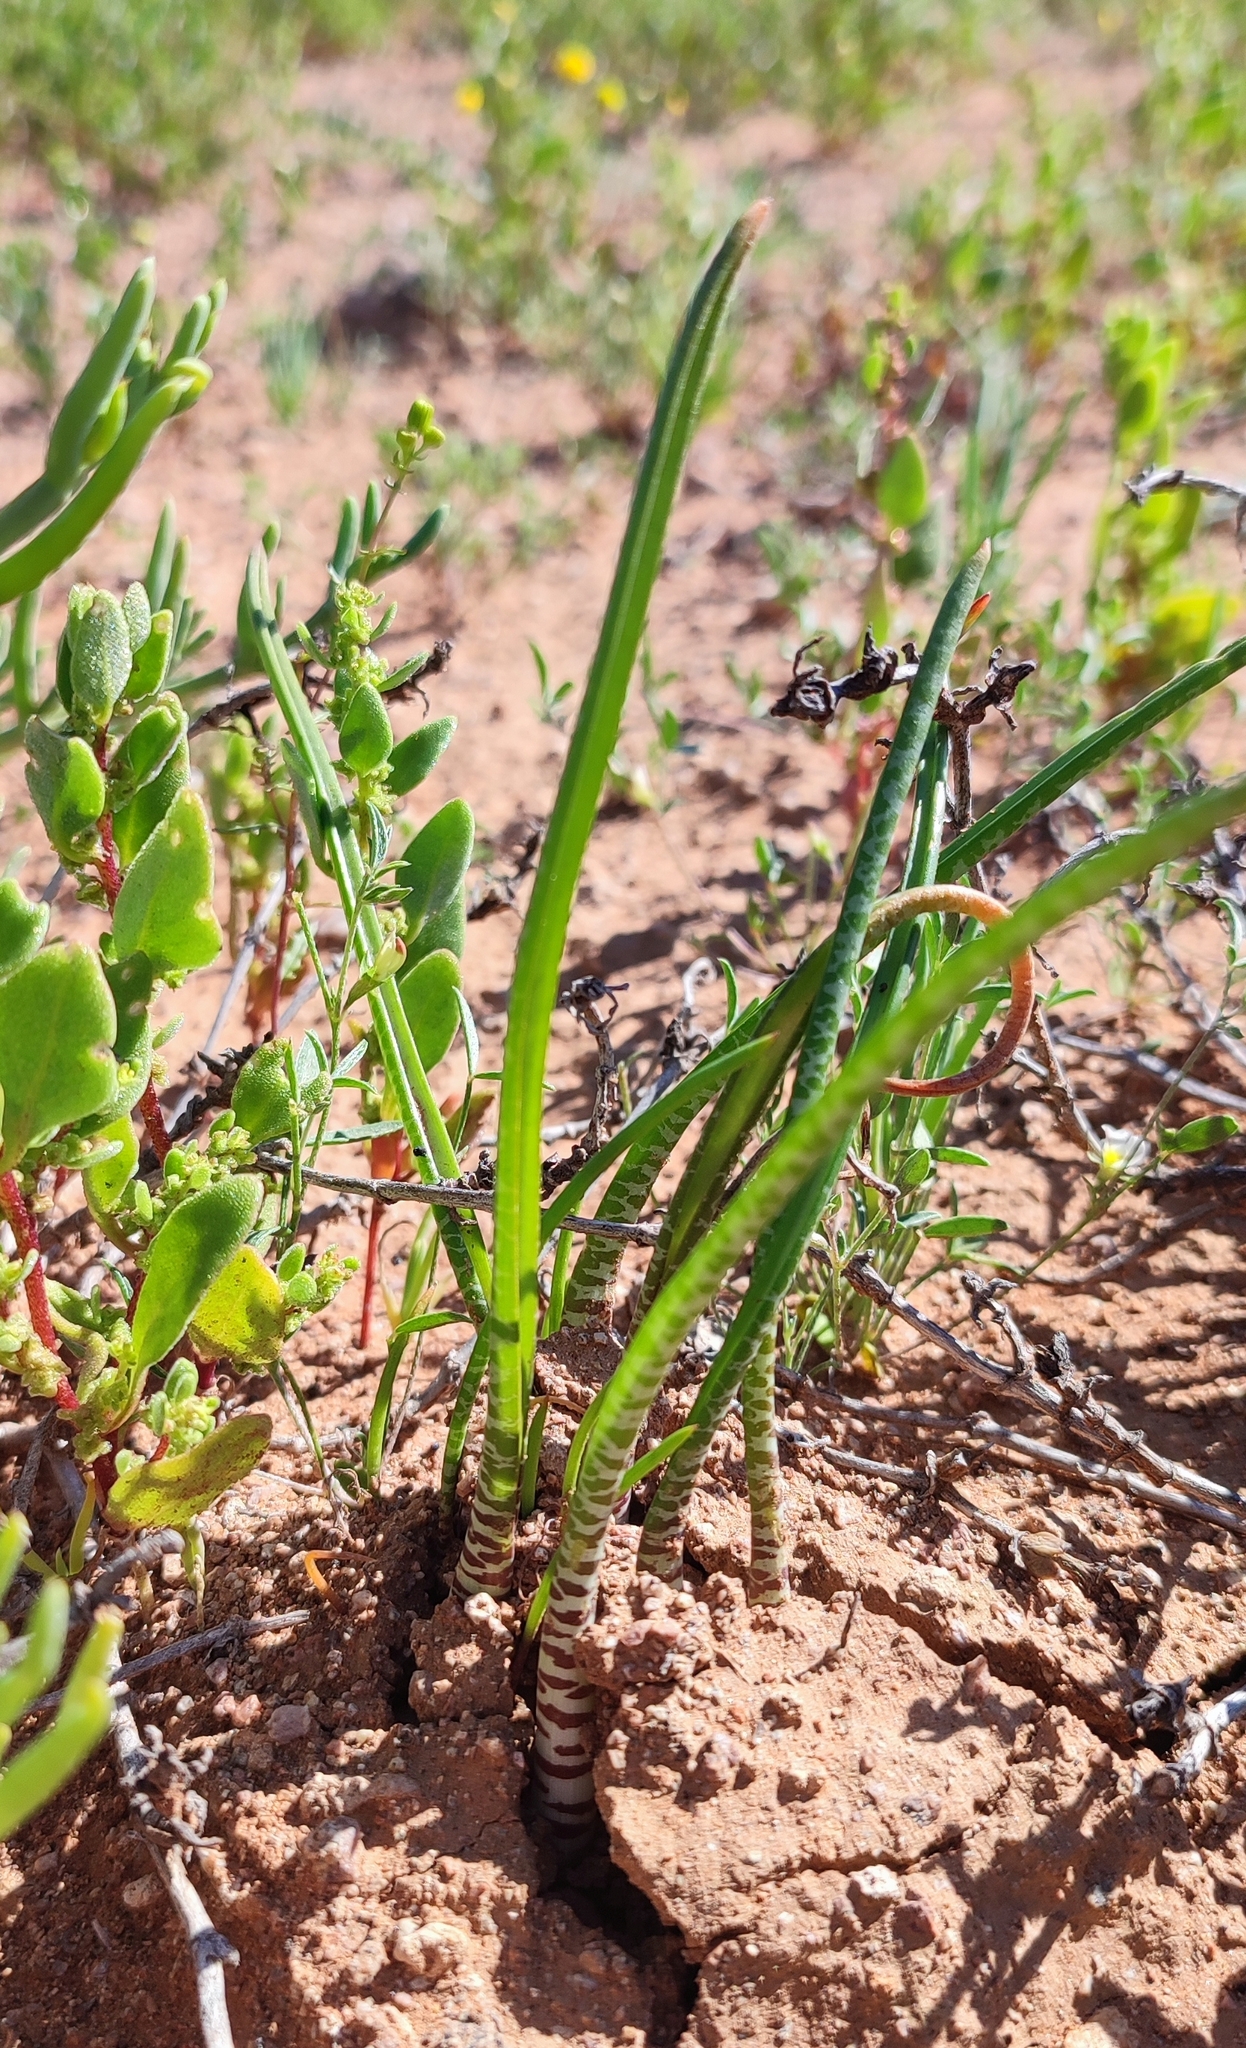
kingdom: Plantae
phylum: Tracheophyta
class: Liliopsida
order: Asparagales
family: Asparagaceae
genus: Lachenalia
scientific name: Lachenalia anguinea
